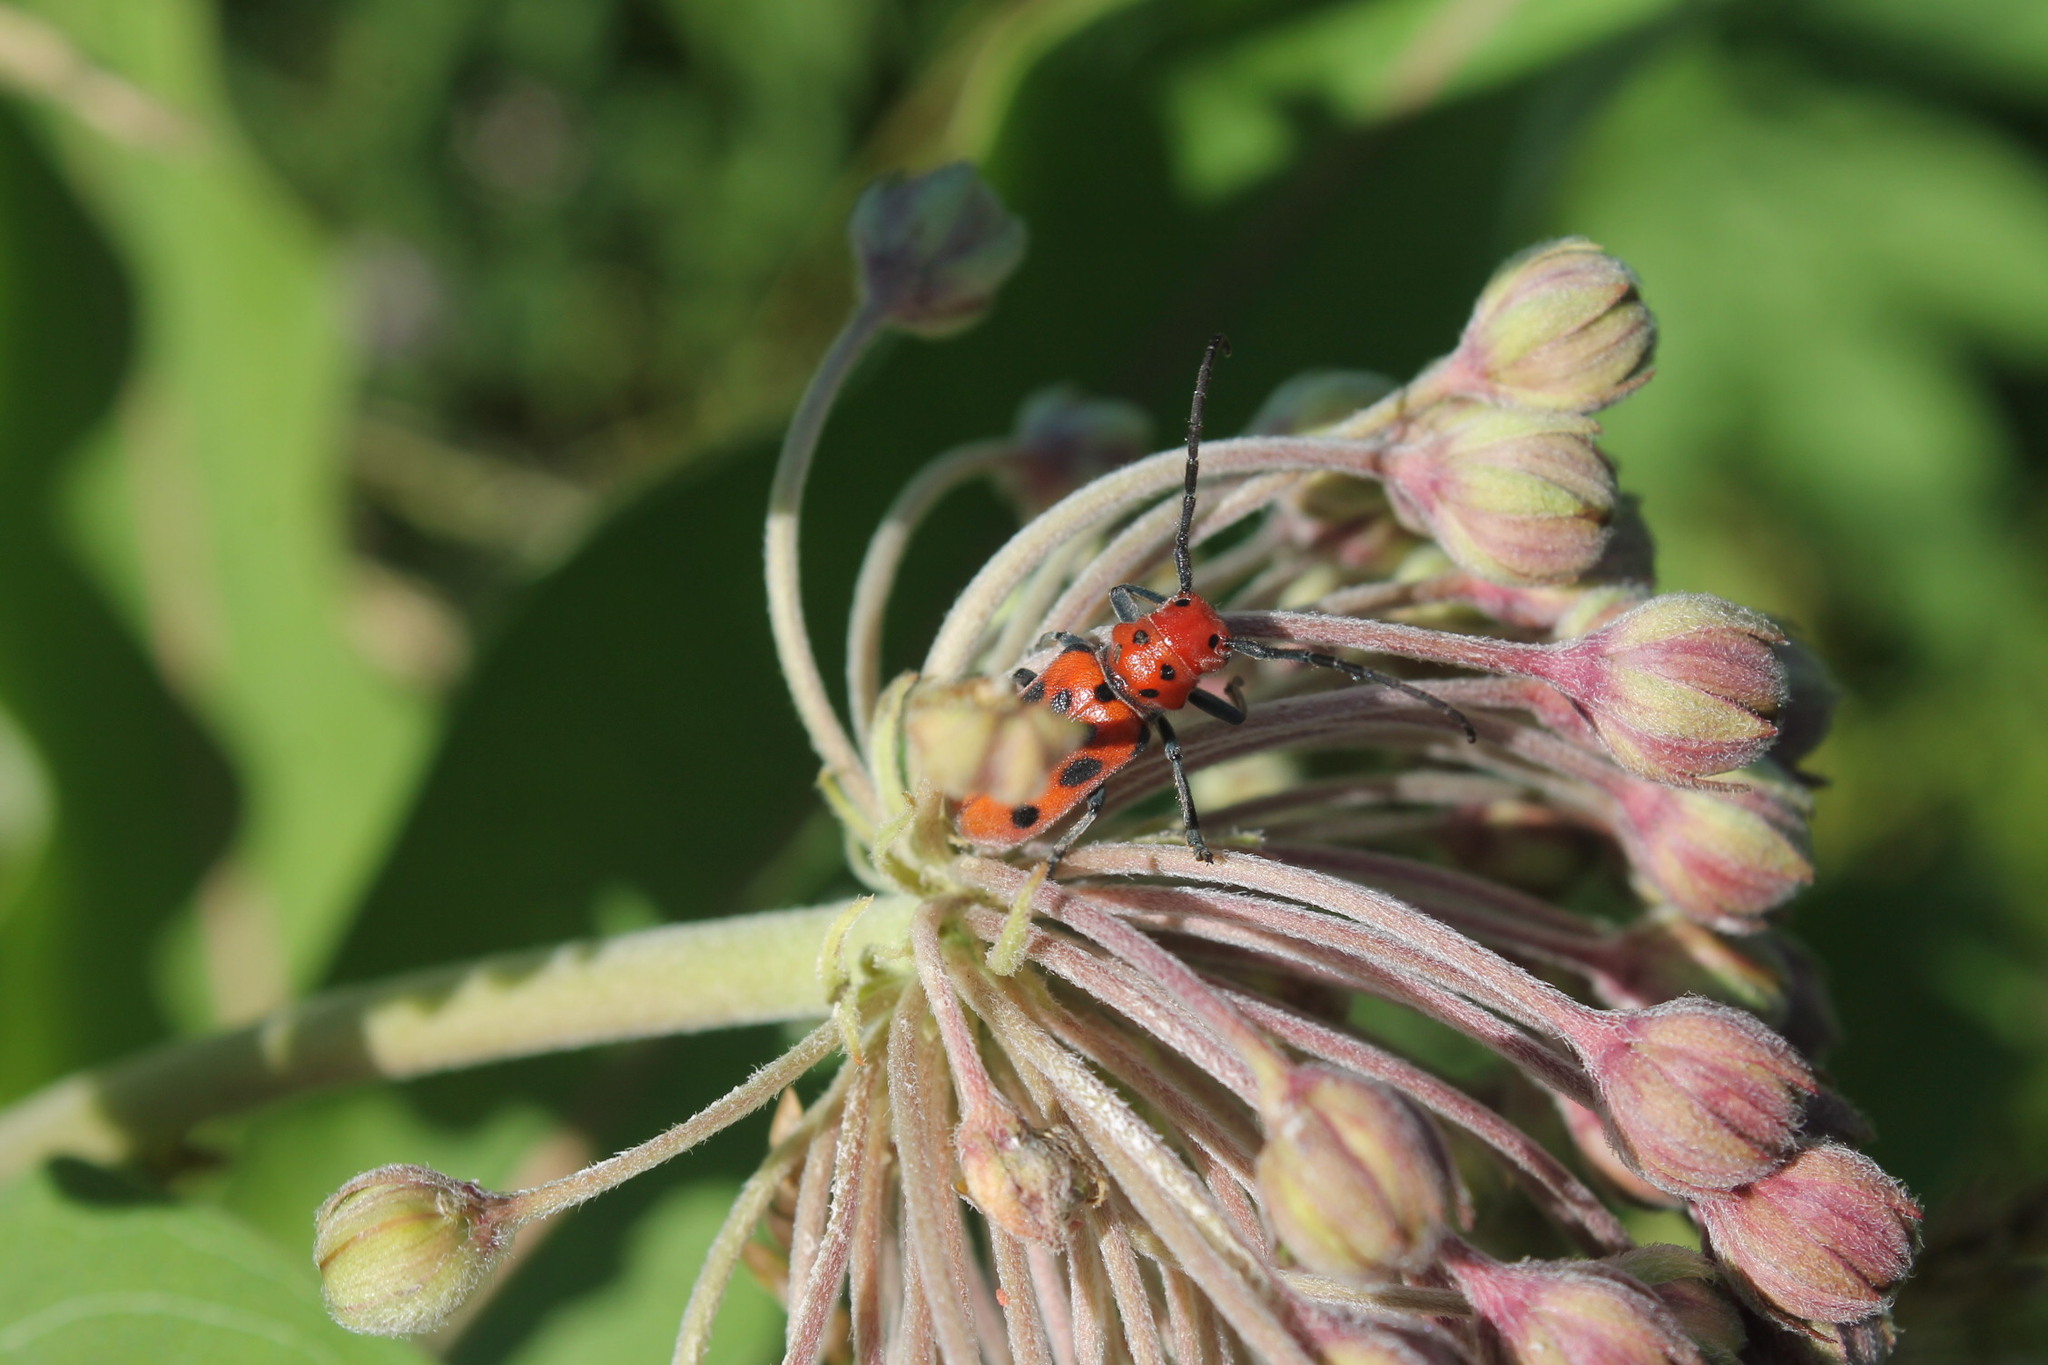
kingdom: Animalia
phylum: Arthropoda
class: Insecta
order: Coleoptera
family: Cerambycidae
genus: Tetraopes
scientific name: Tetraopes tetrophthalmus
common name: Red milkweed beetle
